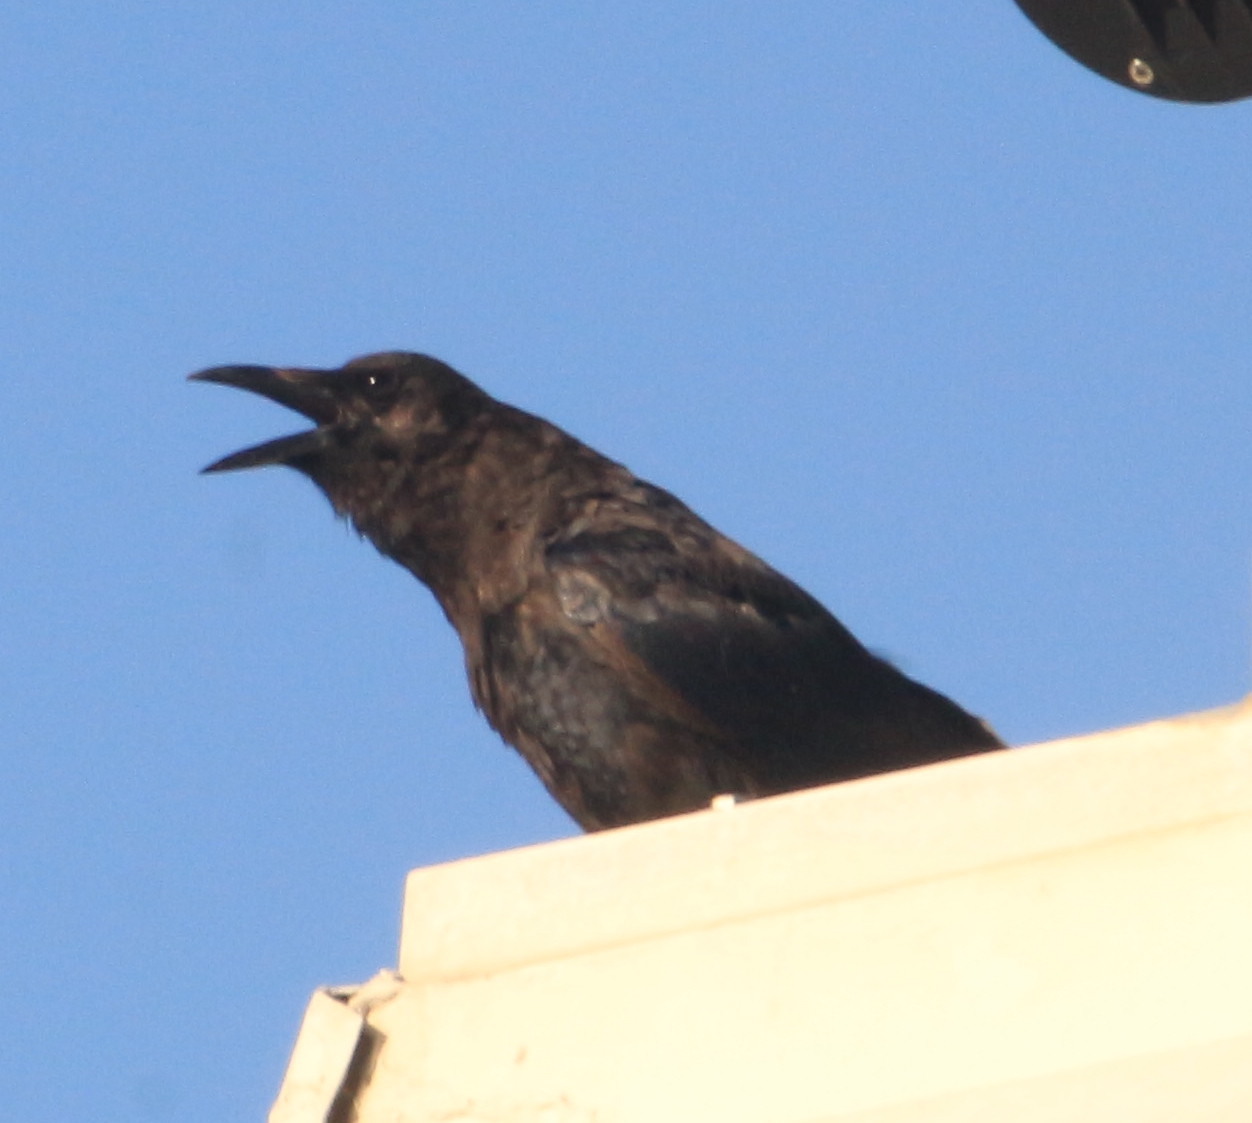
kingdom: Animalia
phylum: Chordata
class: Aves
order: Passeriformes
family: Corvidae
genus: Corvus
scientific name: Corvus brachyrhynchos
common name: American crow
